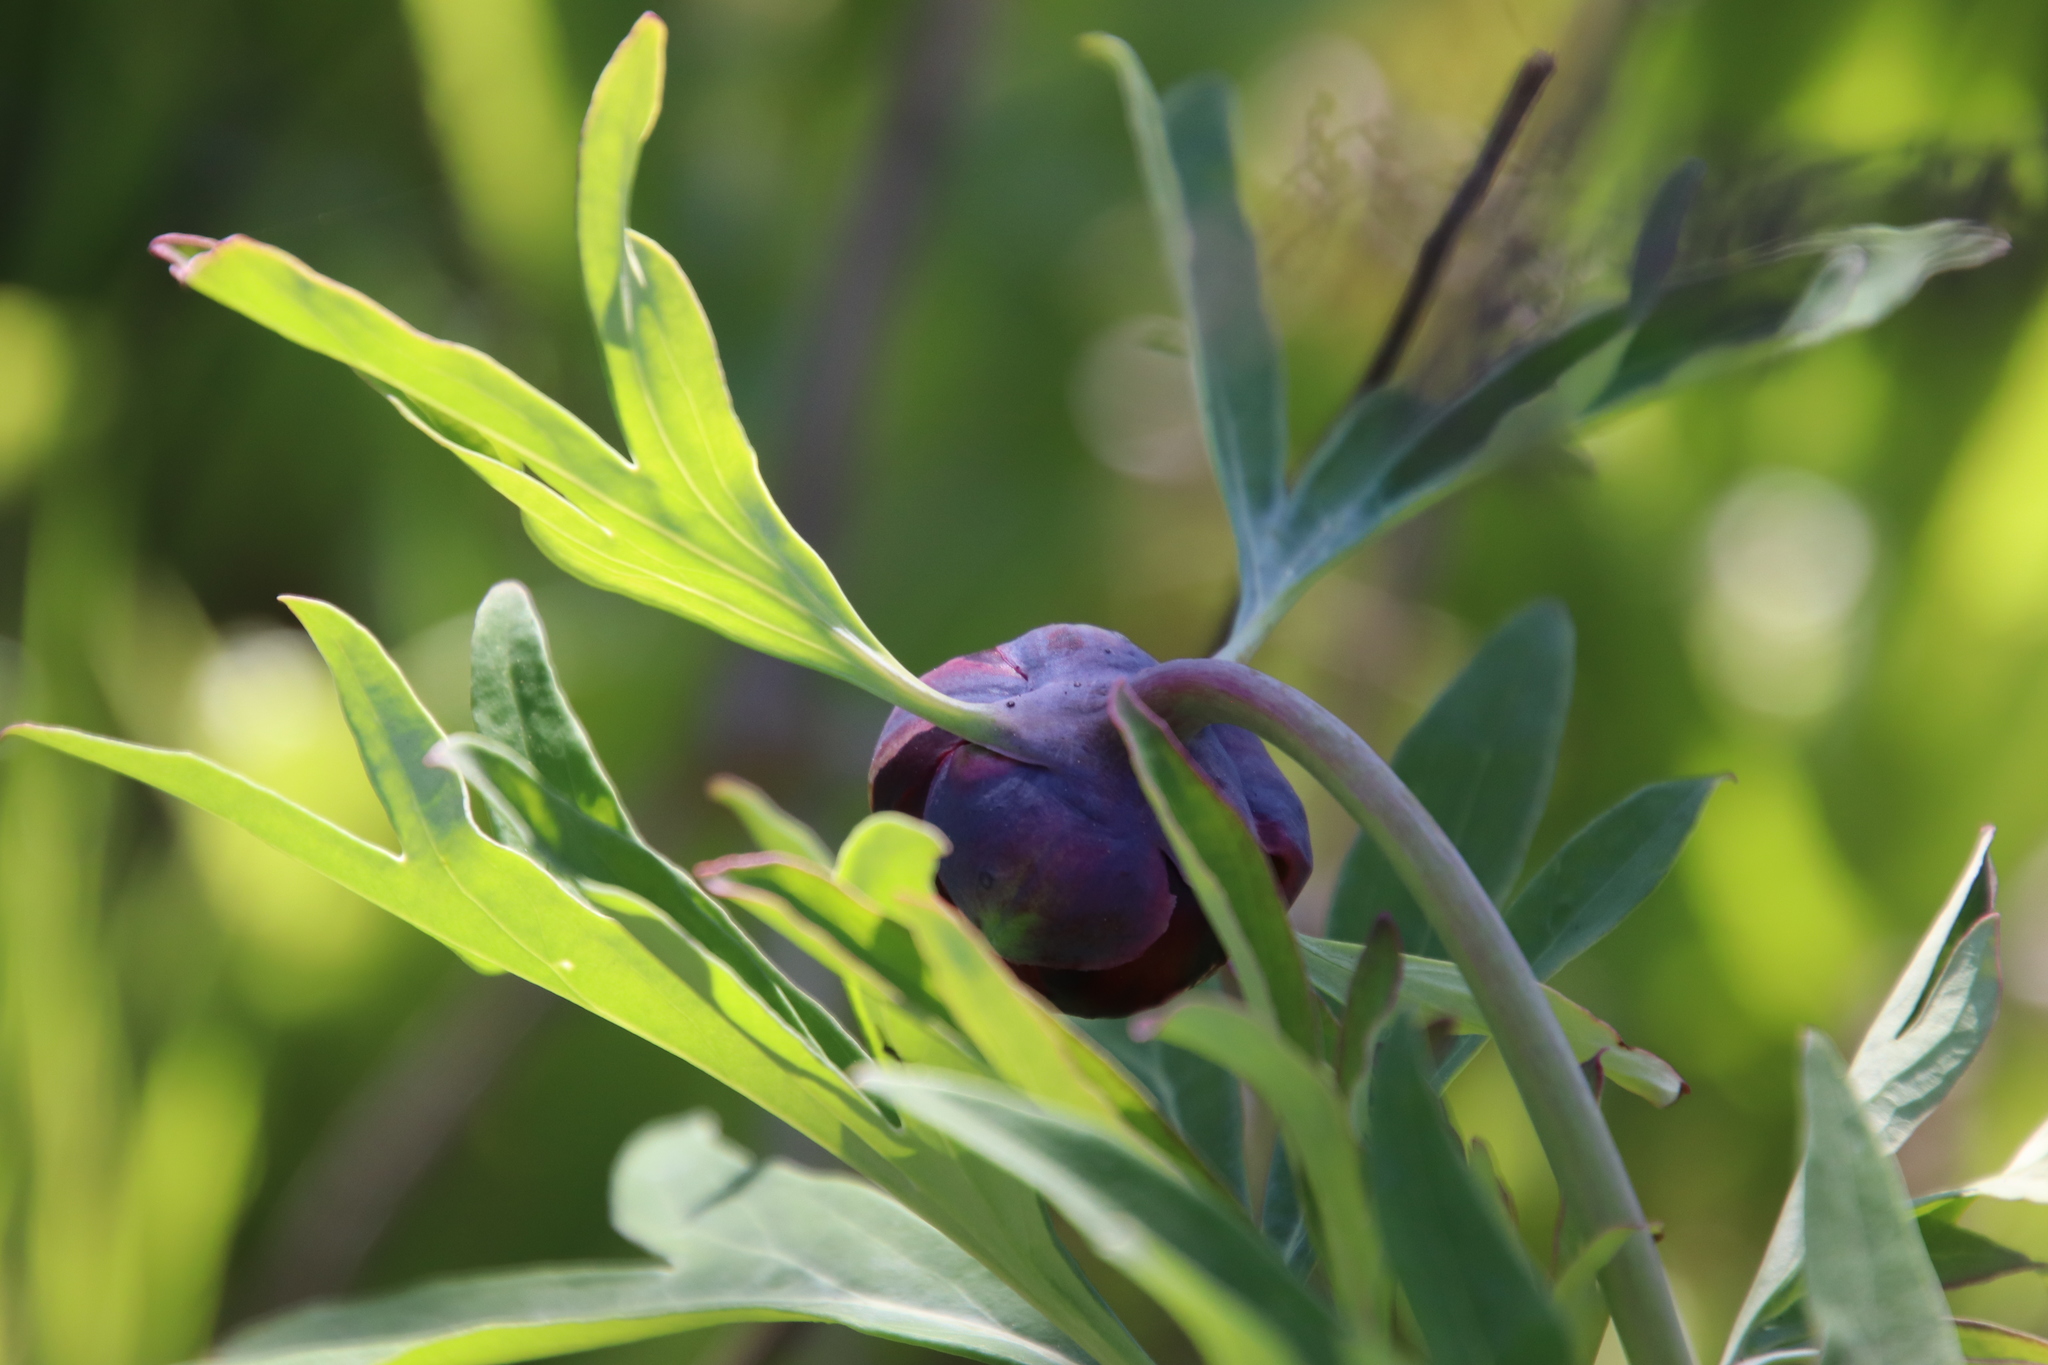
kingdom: Plantae
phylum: Tracheophyta
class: Magnoliopsida
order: Saxifragales
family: Paeoniaceae
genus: Paeonia
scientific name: Paeonia californica
